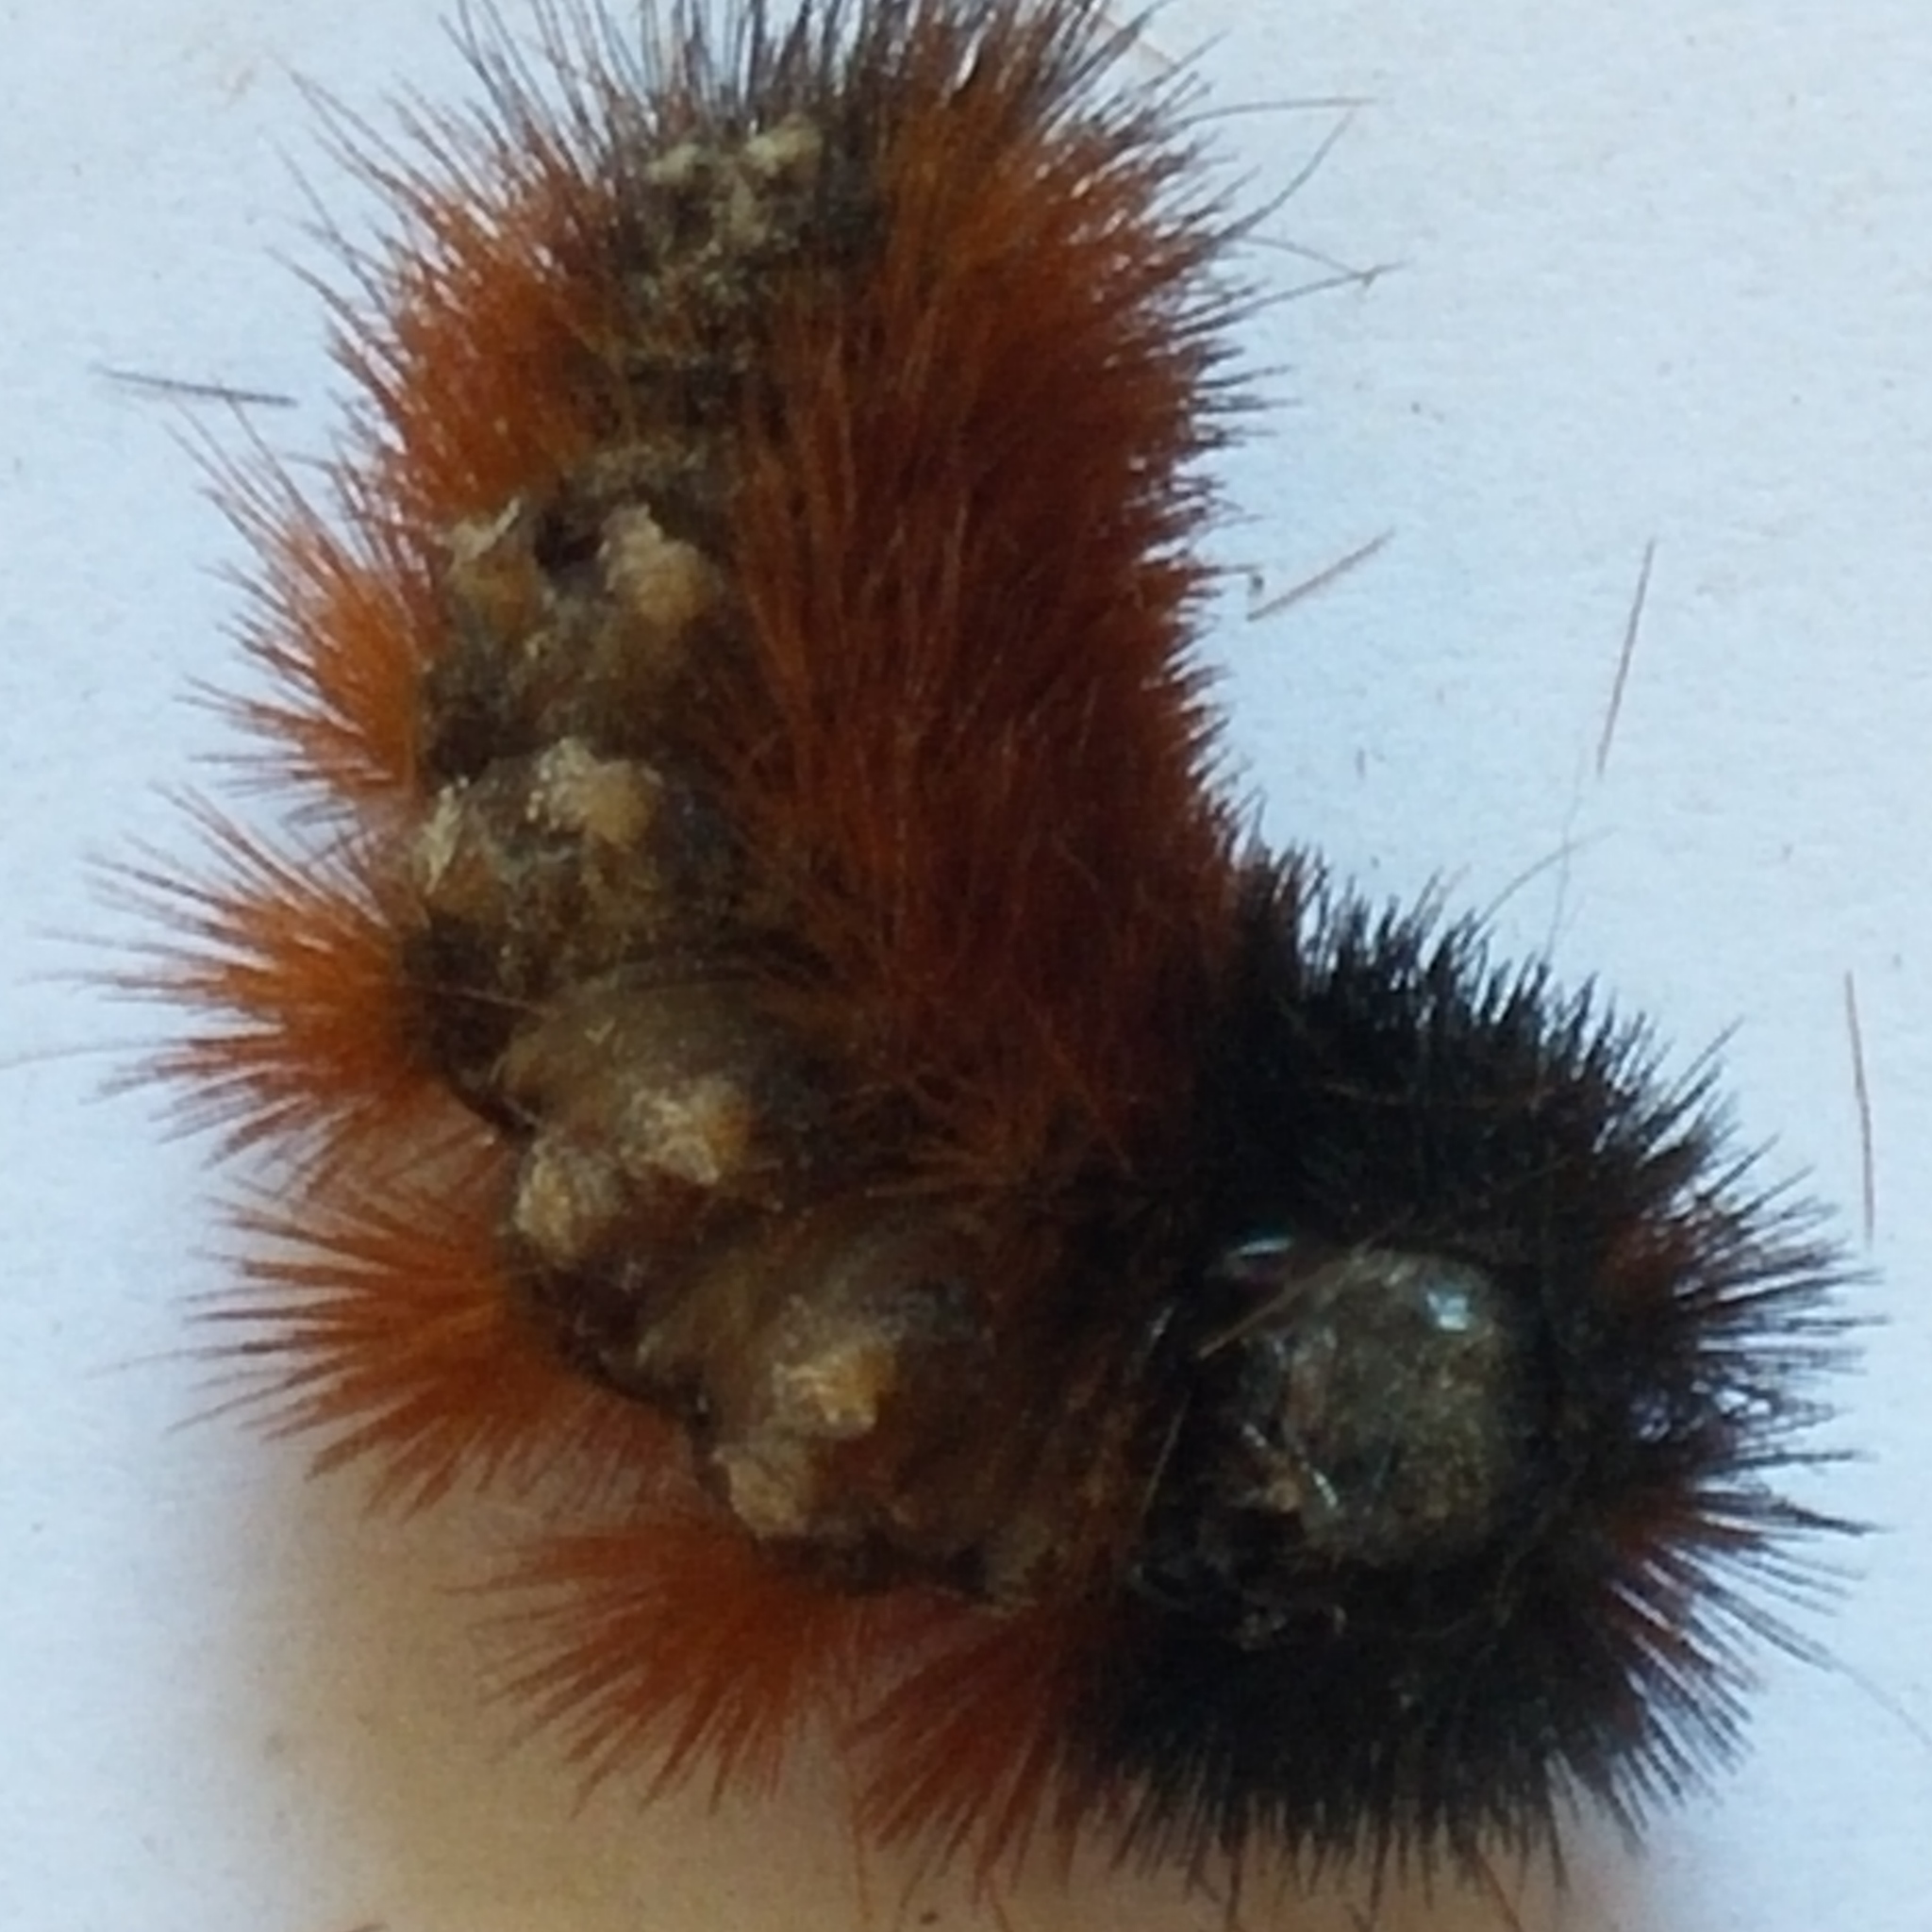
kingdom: Animalia
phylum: Arthropoda
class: Insecta
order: Lepidoptera
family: Erebidae
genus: Pyrrharctia
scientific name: Pyrrharctia isabella
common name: Isabella tiger moth
